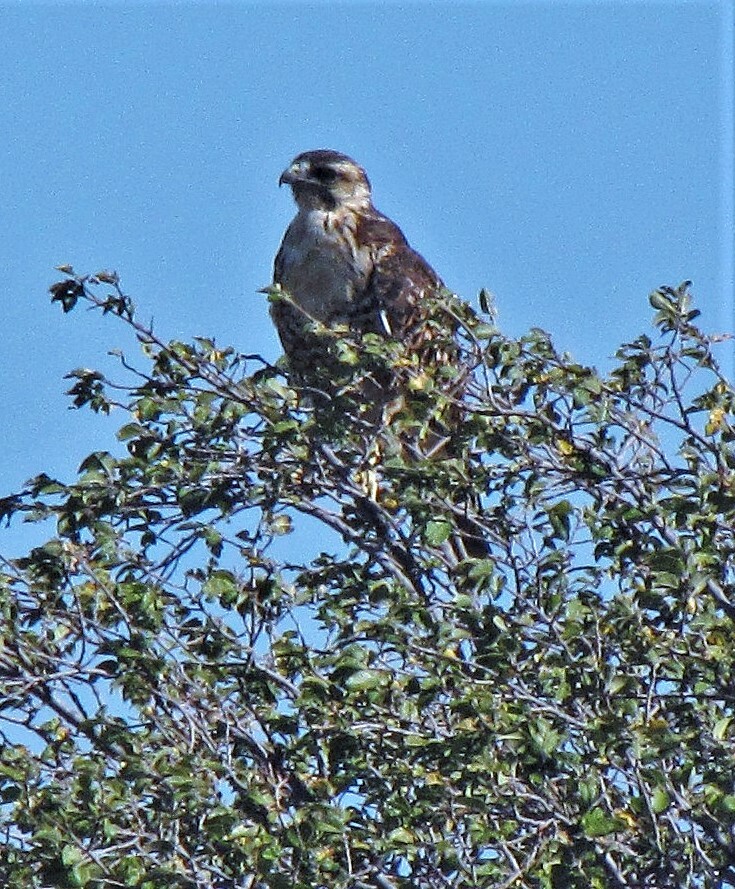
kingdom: Animalia
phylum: Chordata
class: Aves
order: Accipitriformes
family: Accipitridae
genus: Buteo
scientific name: Buteo polyosoma
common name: Variable hawk
